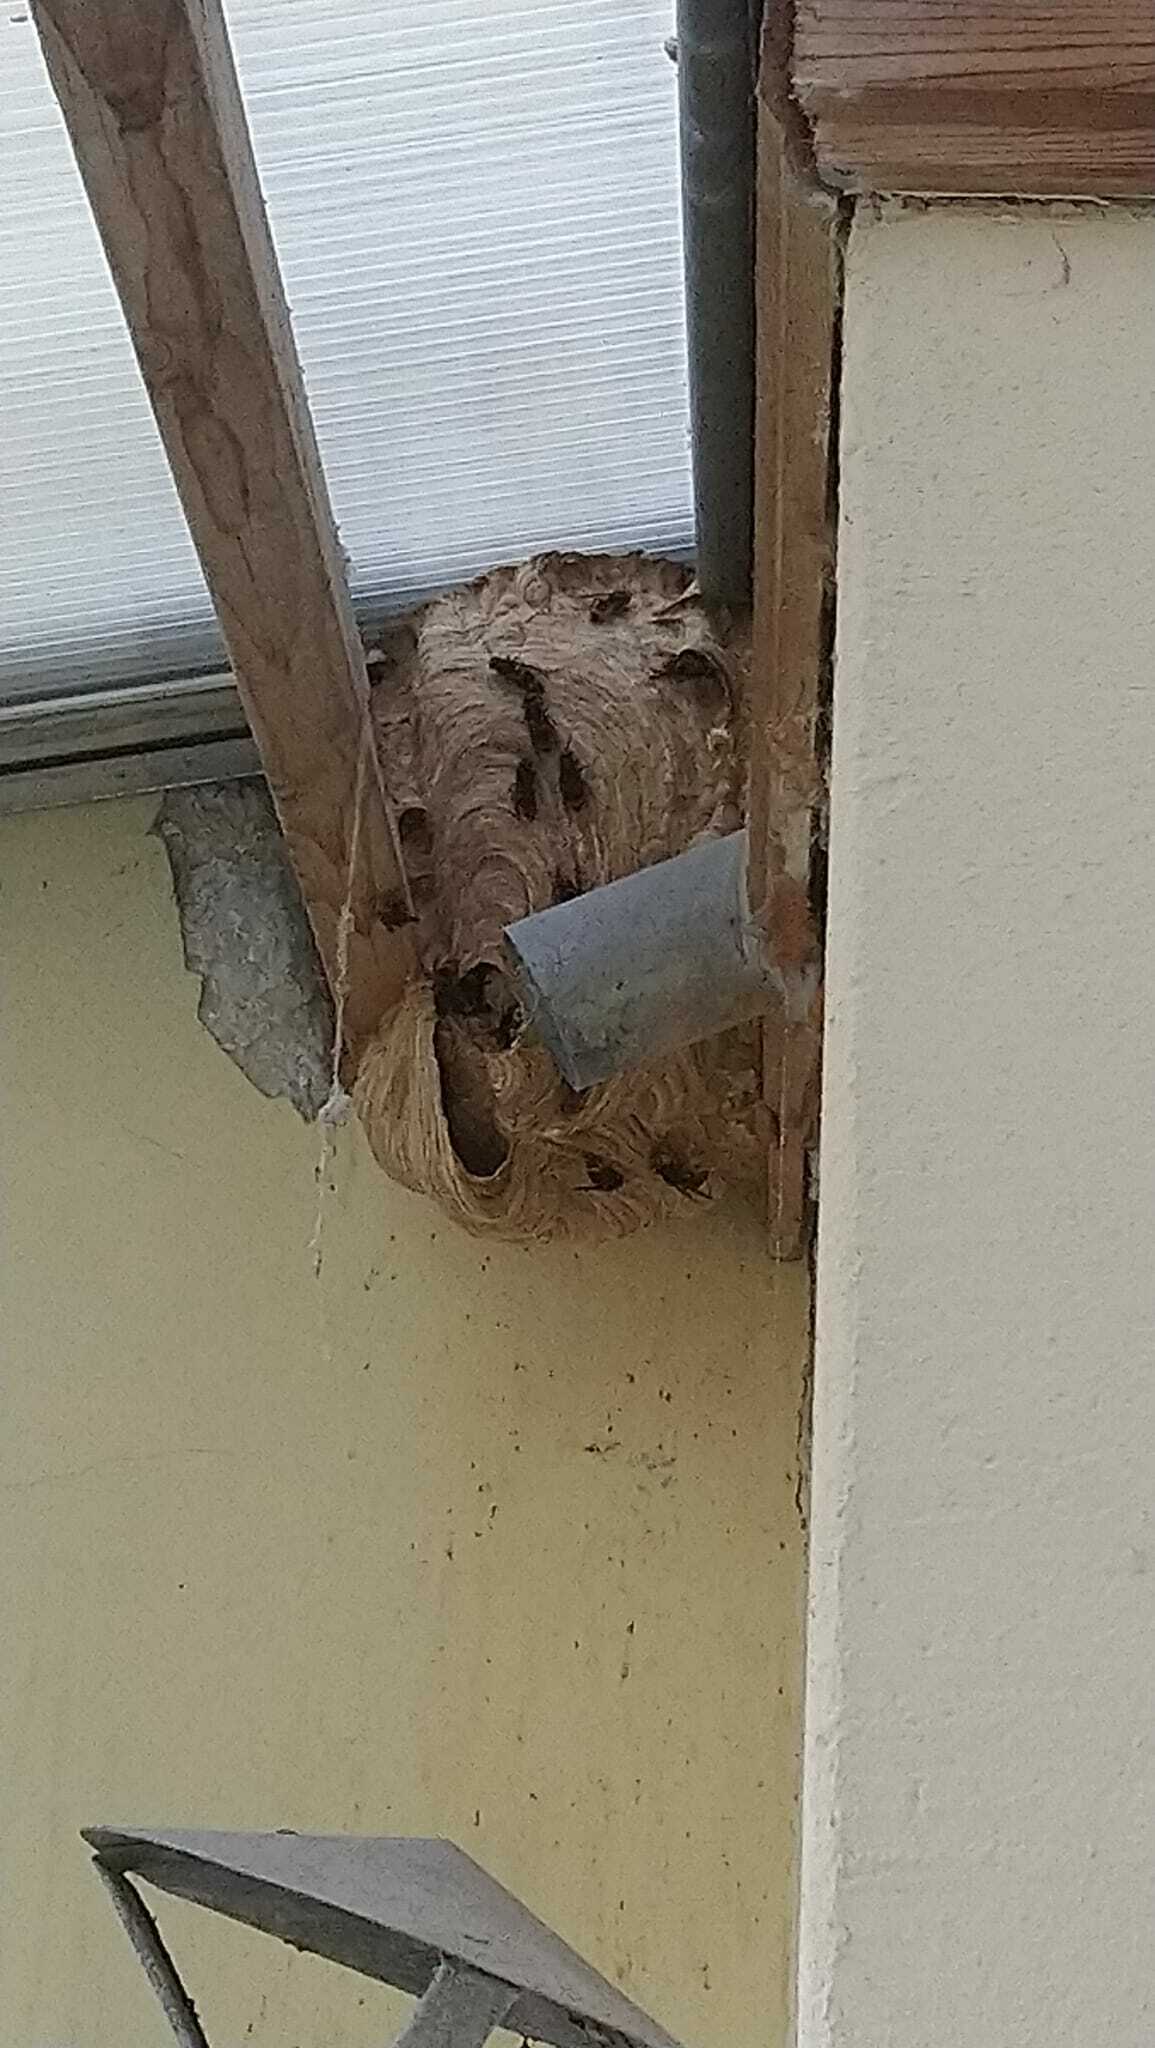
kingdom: Animalia
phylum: Arthropoda
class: Insecta
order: Hymenoptera
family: Vespidae
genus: Vespa
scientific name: Vespa velutina
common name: Asian hornet
